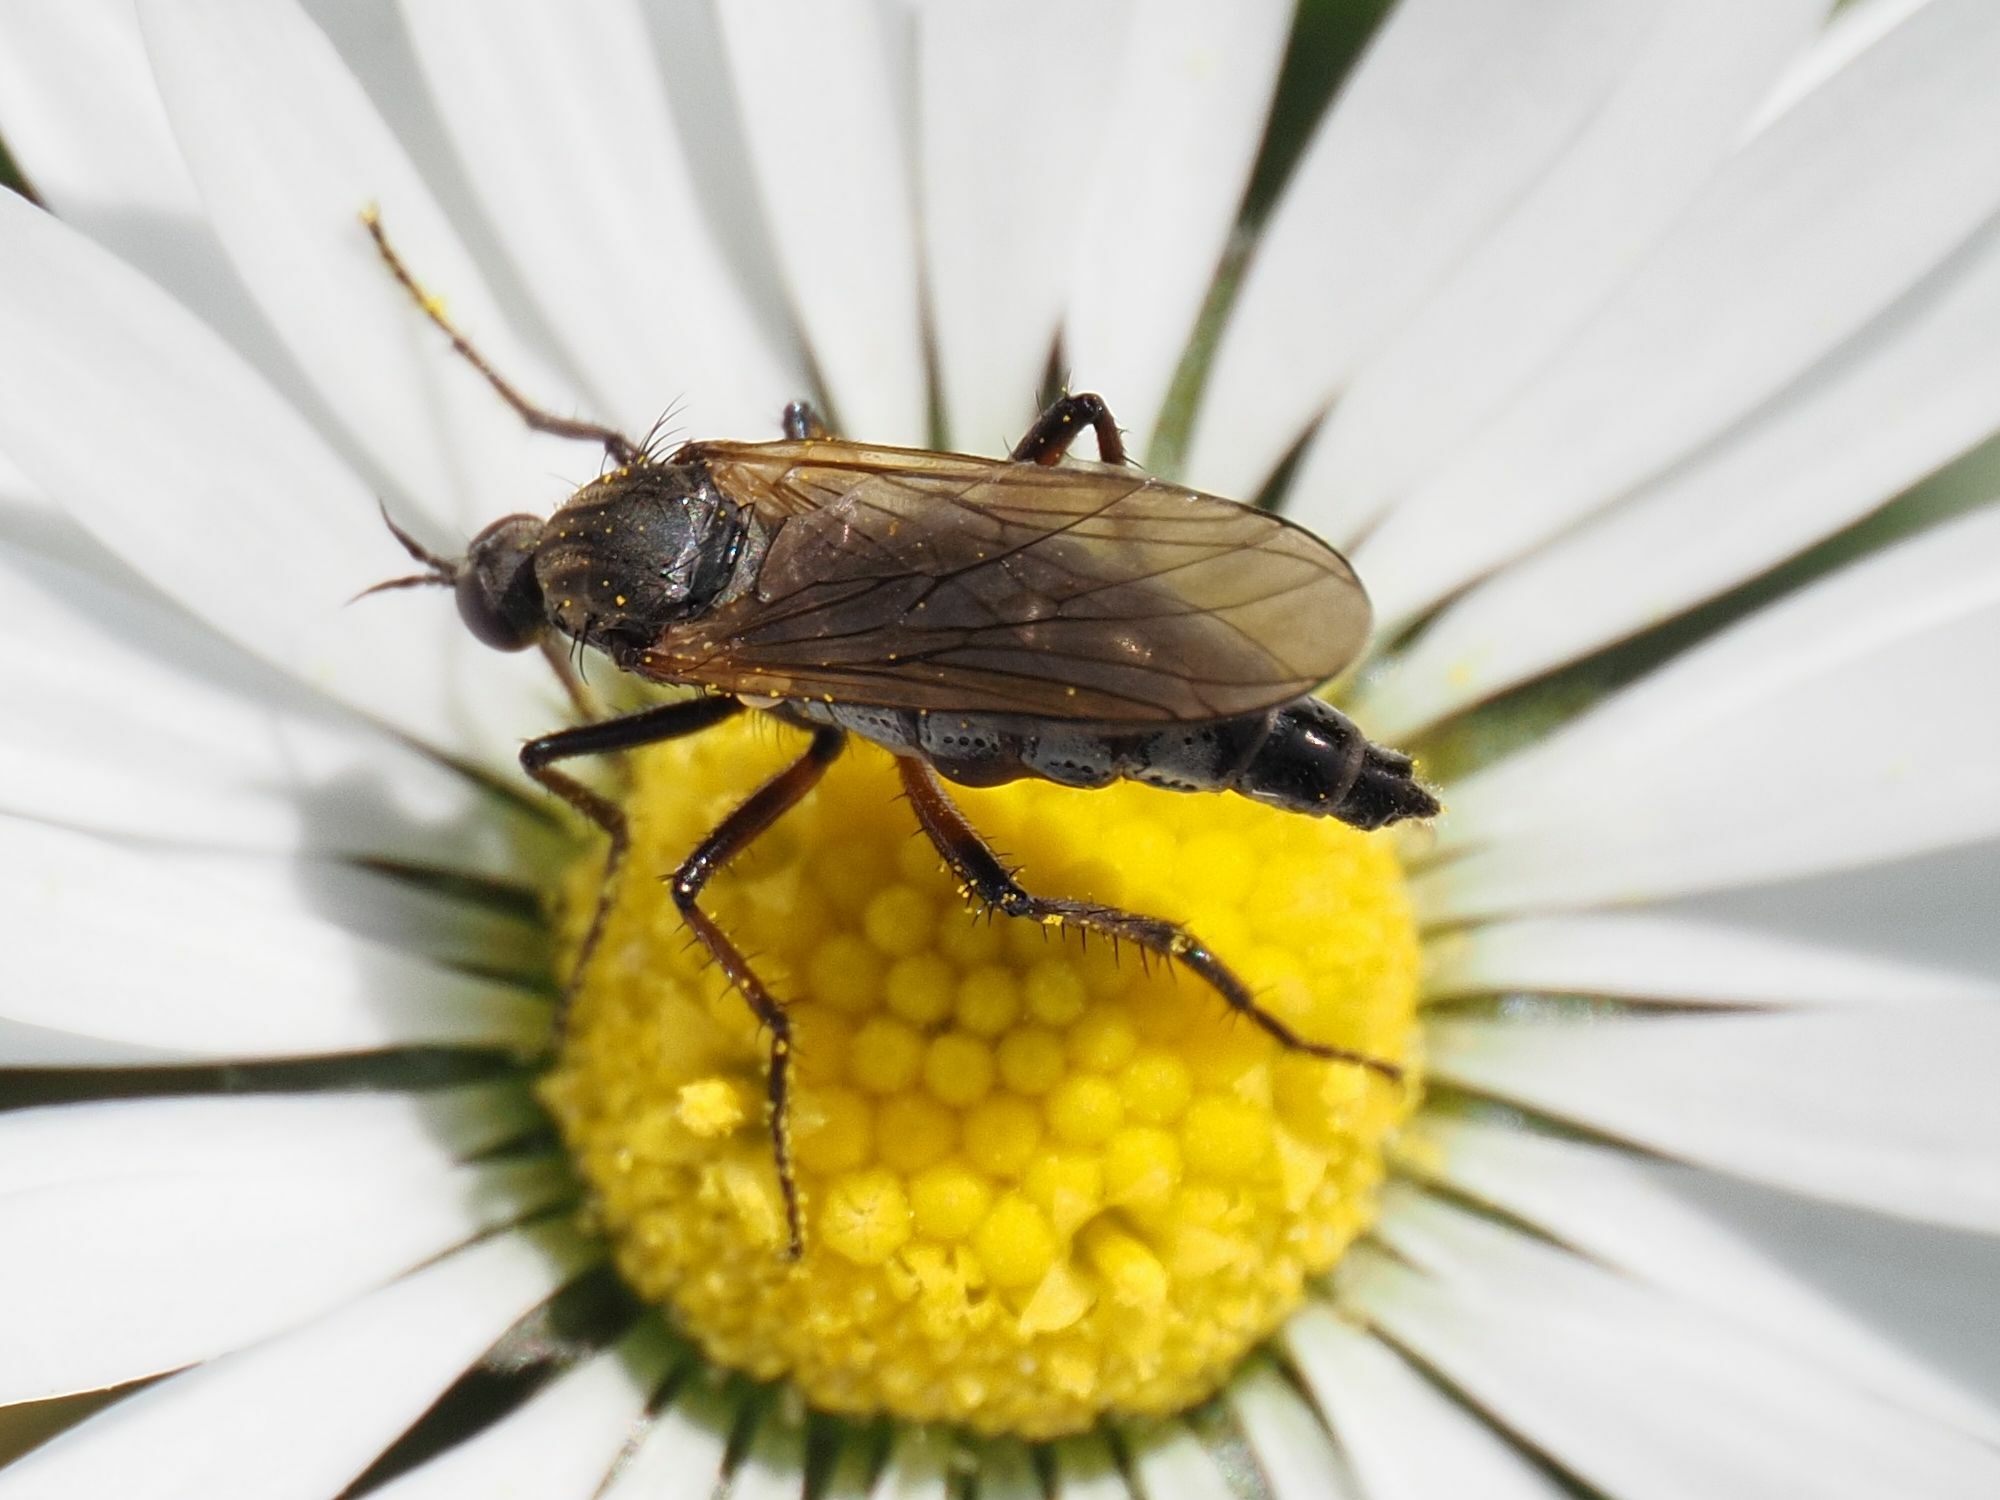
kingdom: Animalia
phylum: Arthropoda
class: Insecta
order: Diptera
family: Empididae
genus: Empis
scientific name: Empis tessellata
